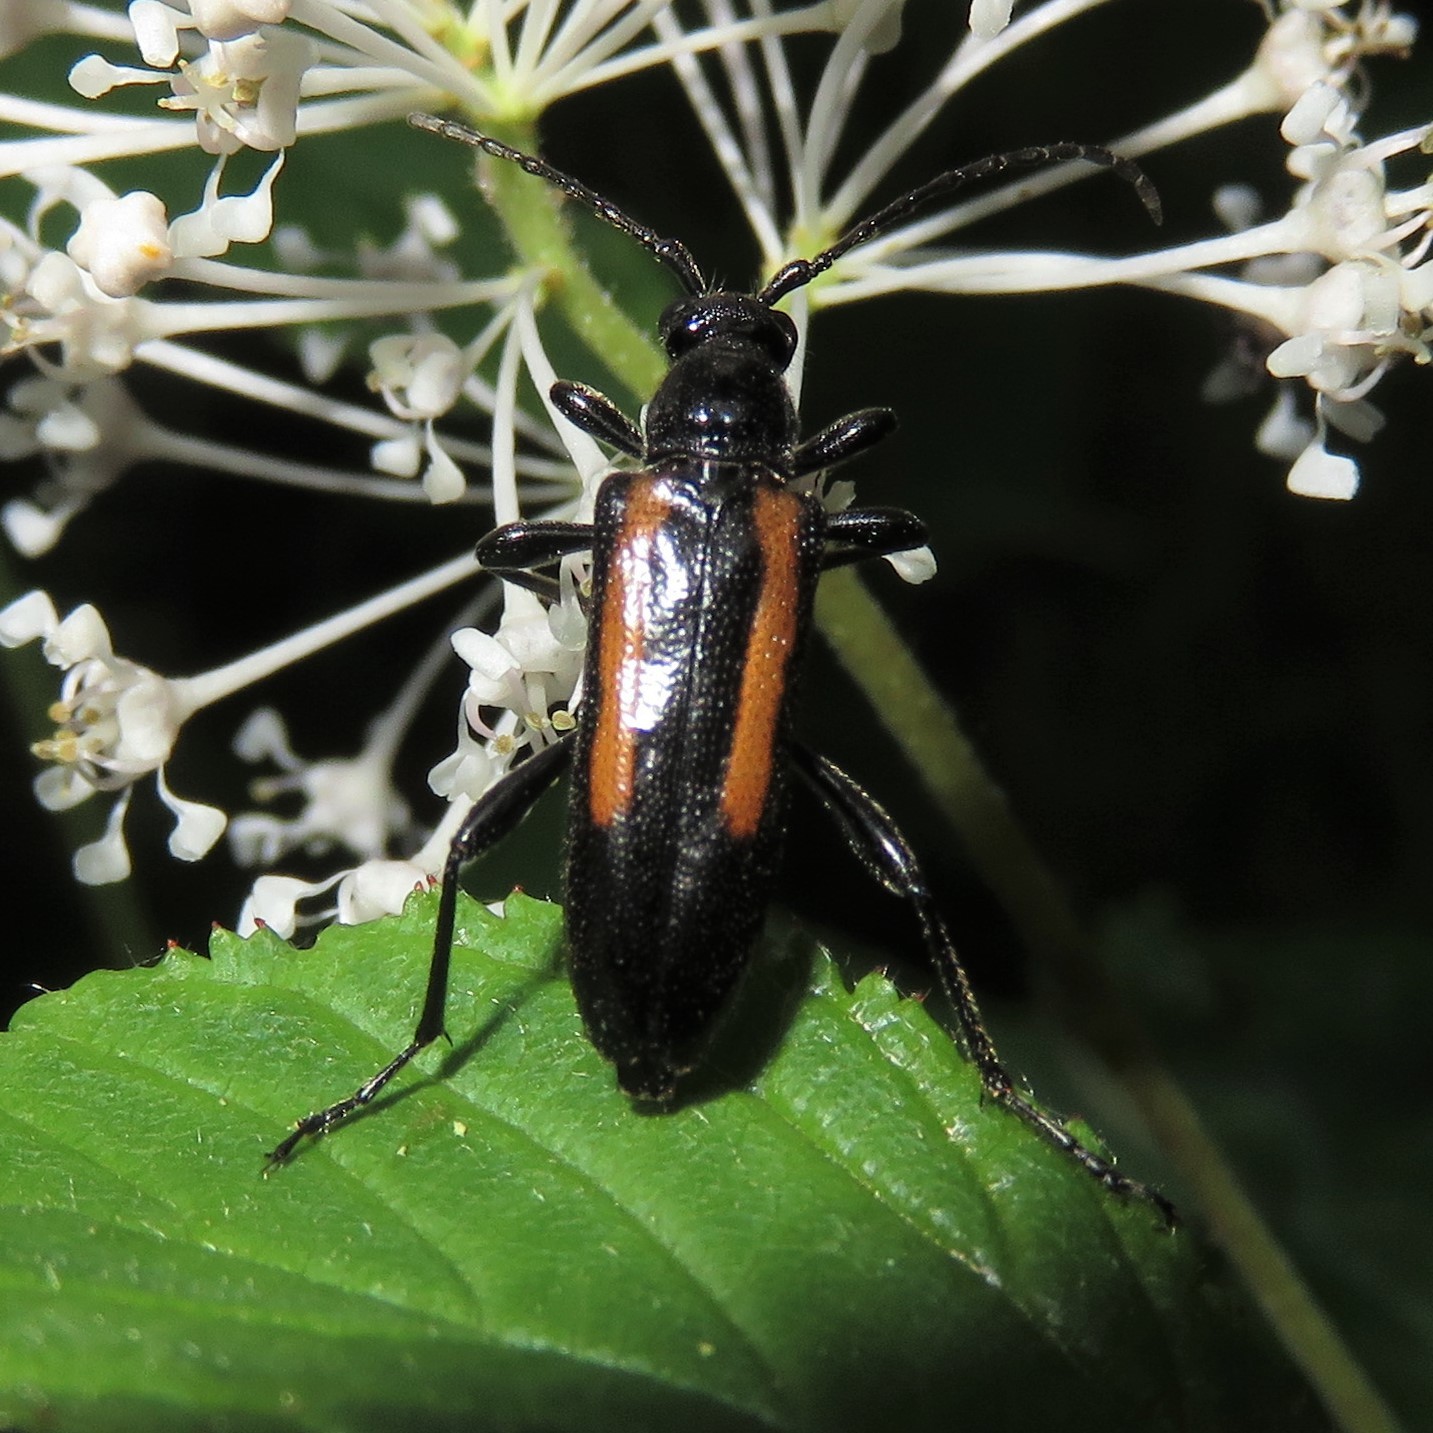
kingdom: Animalia
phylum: Arthropoda
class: Insecta
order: Coleoptera
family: Cerambycidae
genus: Strangalepta
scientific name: Strangalepta abbreviata
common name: Strangalepta flower longhorn beetle
